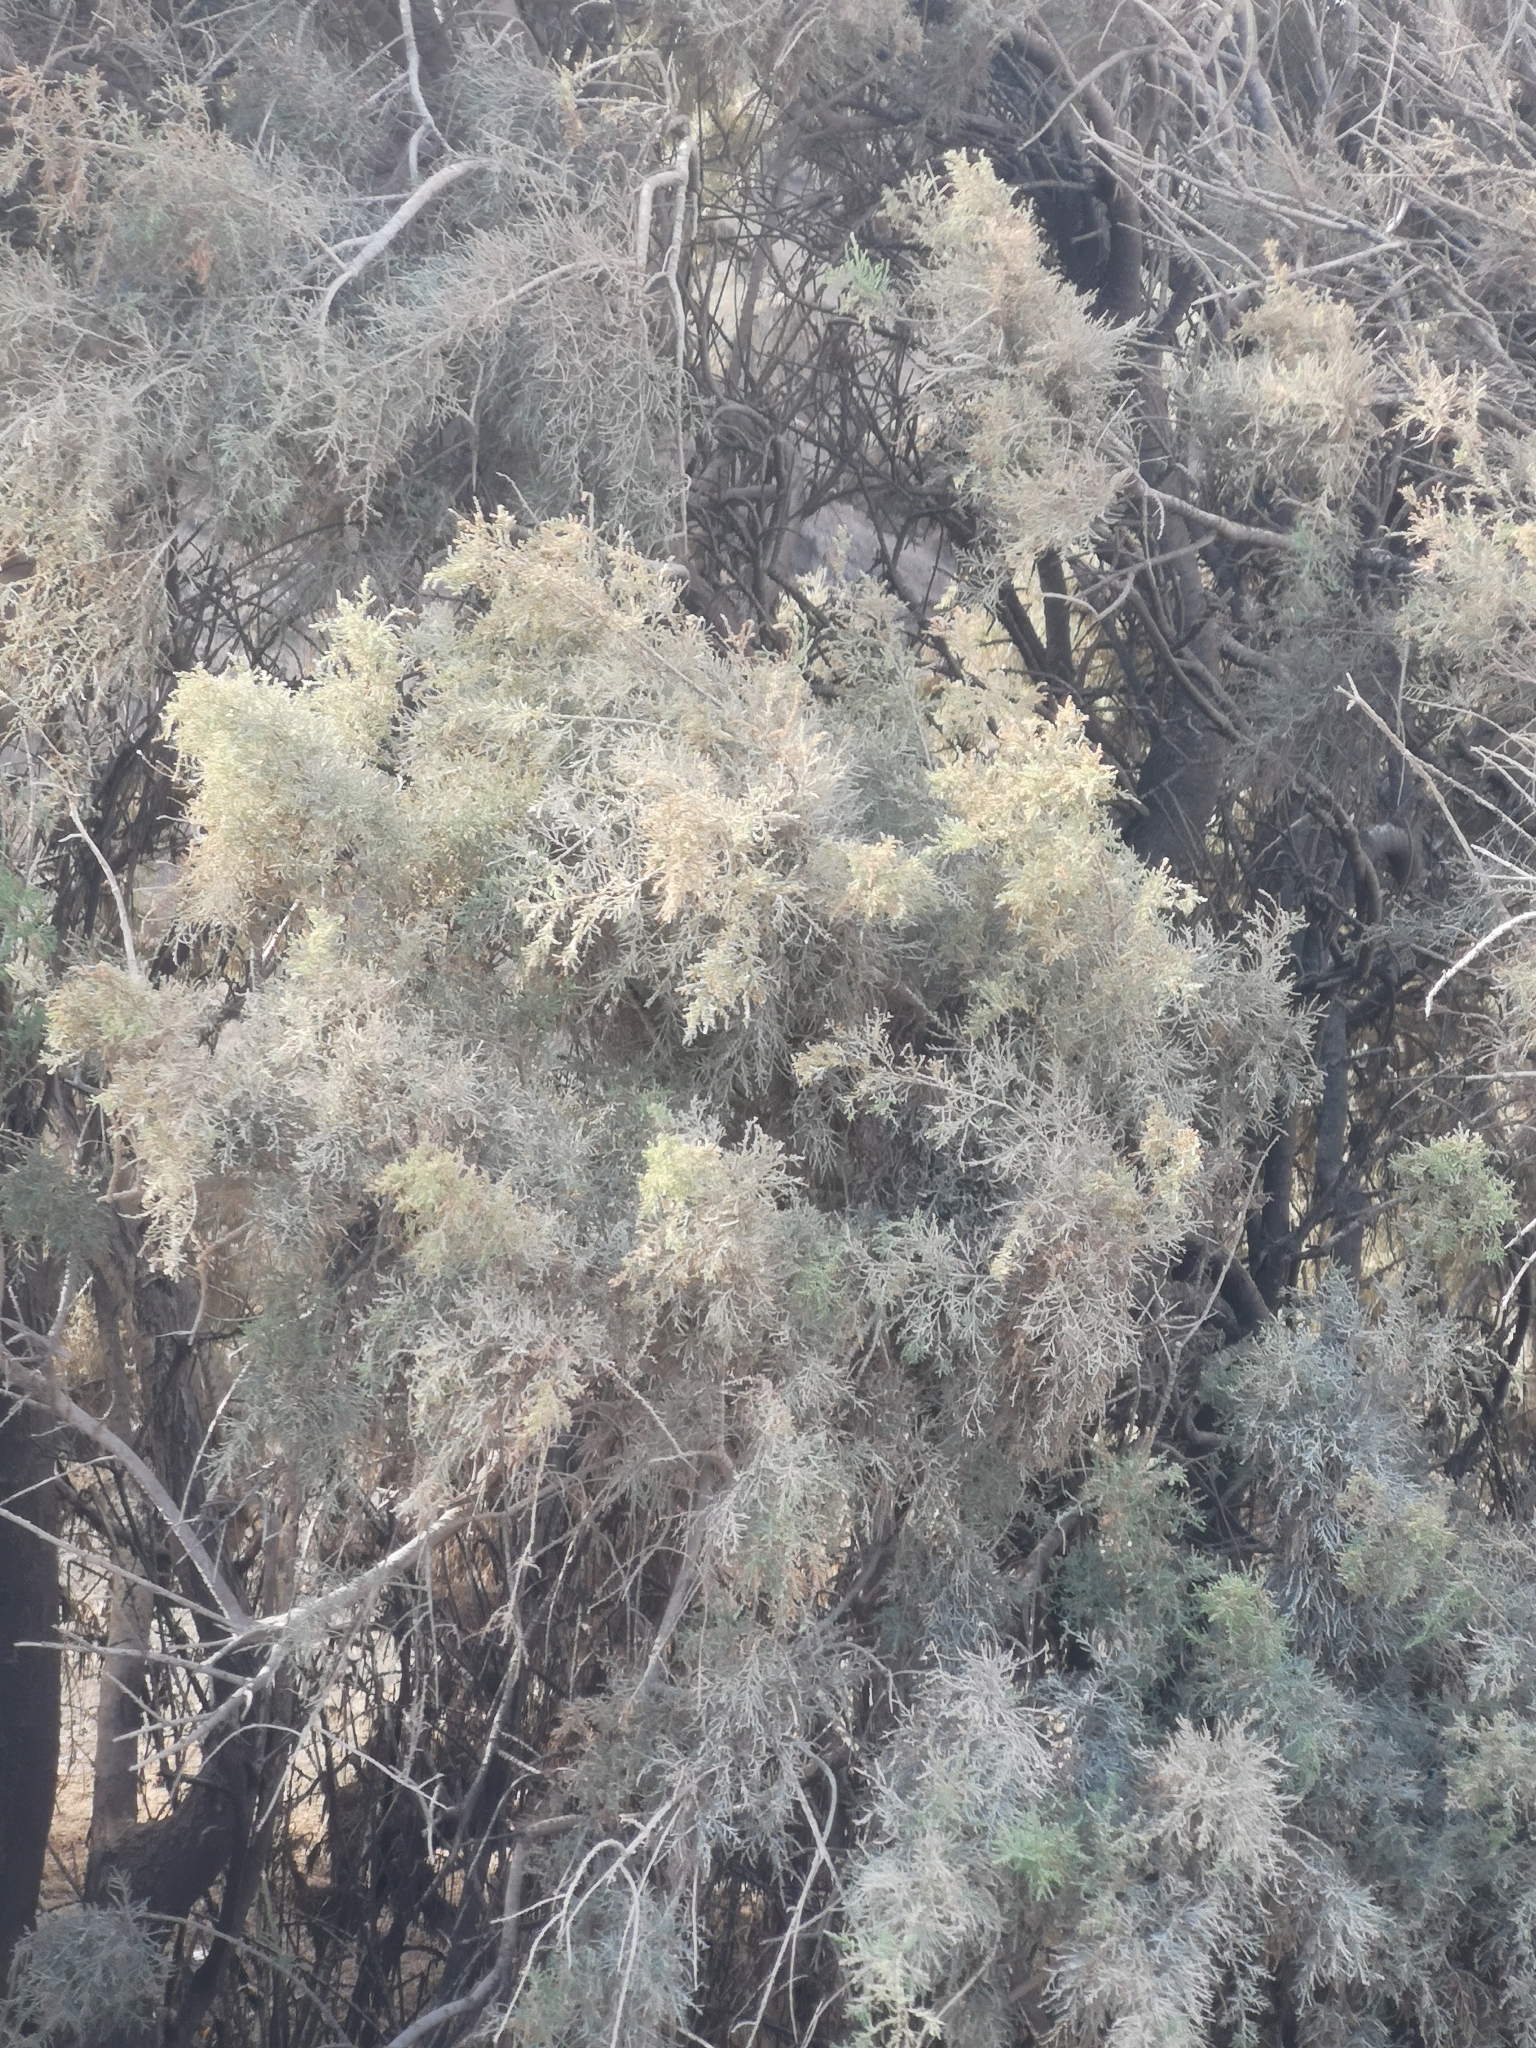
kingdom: Plantae
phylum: Tracheophyta
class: Magnoliopsida
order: Caryophyllales
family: Tamaricaceae
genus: Tamarix
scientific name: Tamarix canariensis
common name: Canary island tamarisk
